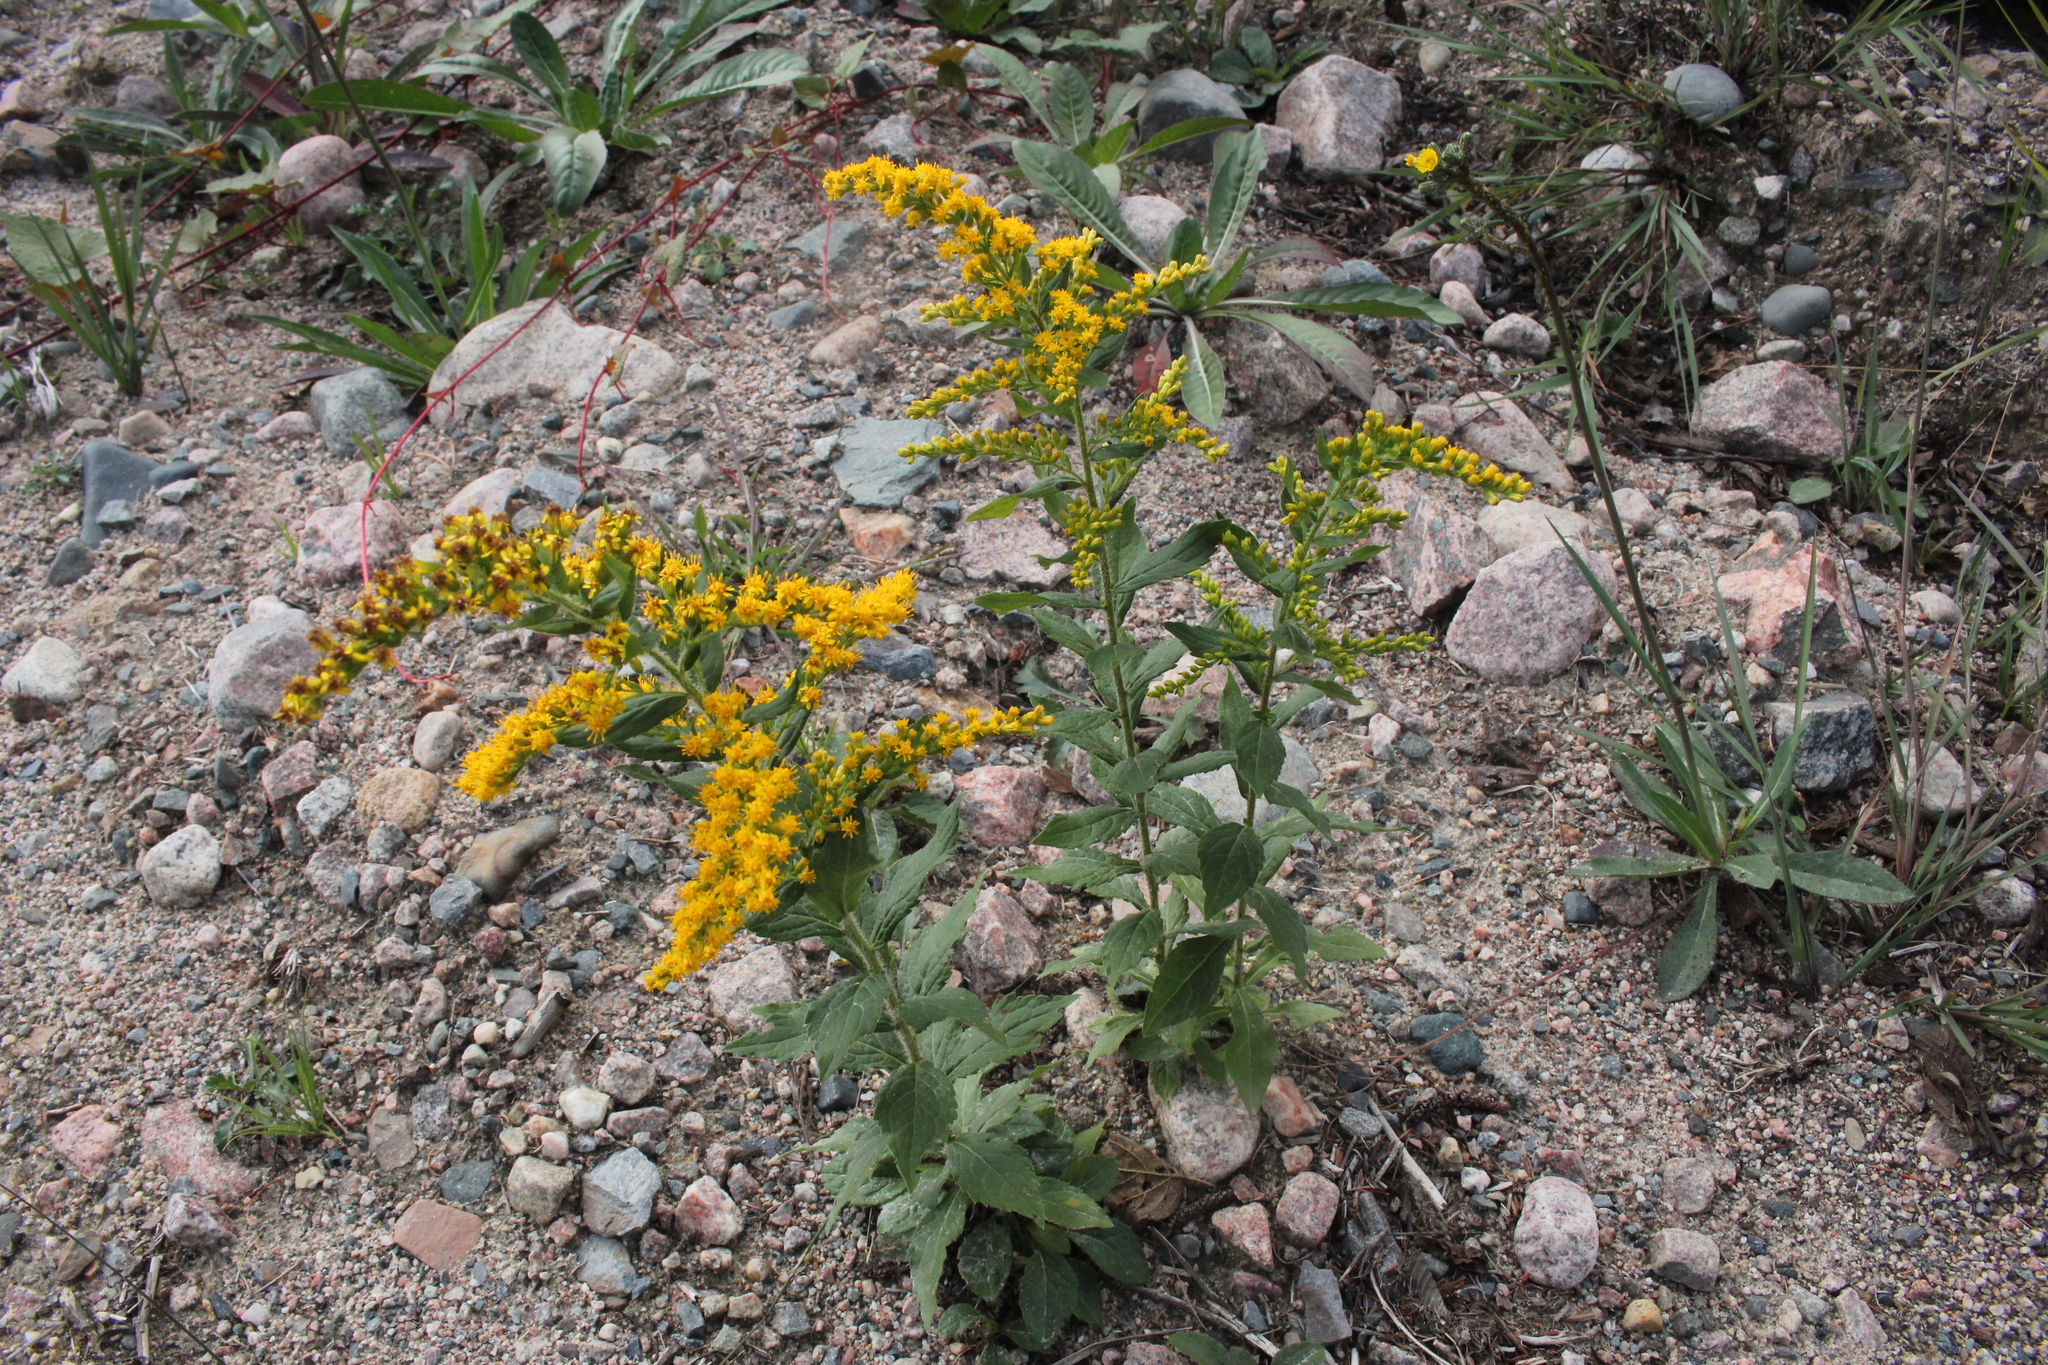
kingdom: Plantae
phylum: Tracheophyta
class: Magnoliopsida
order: Asterales
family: Asteraceae
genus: Solidago
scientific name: Solidago rugosa
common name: Rough-stemmed goldenrod
